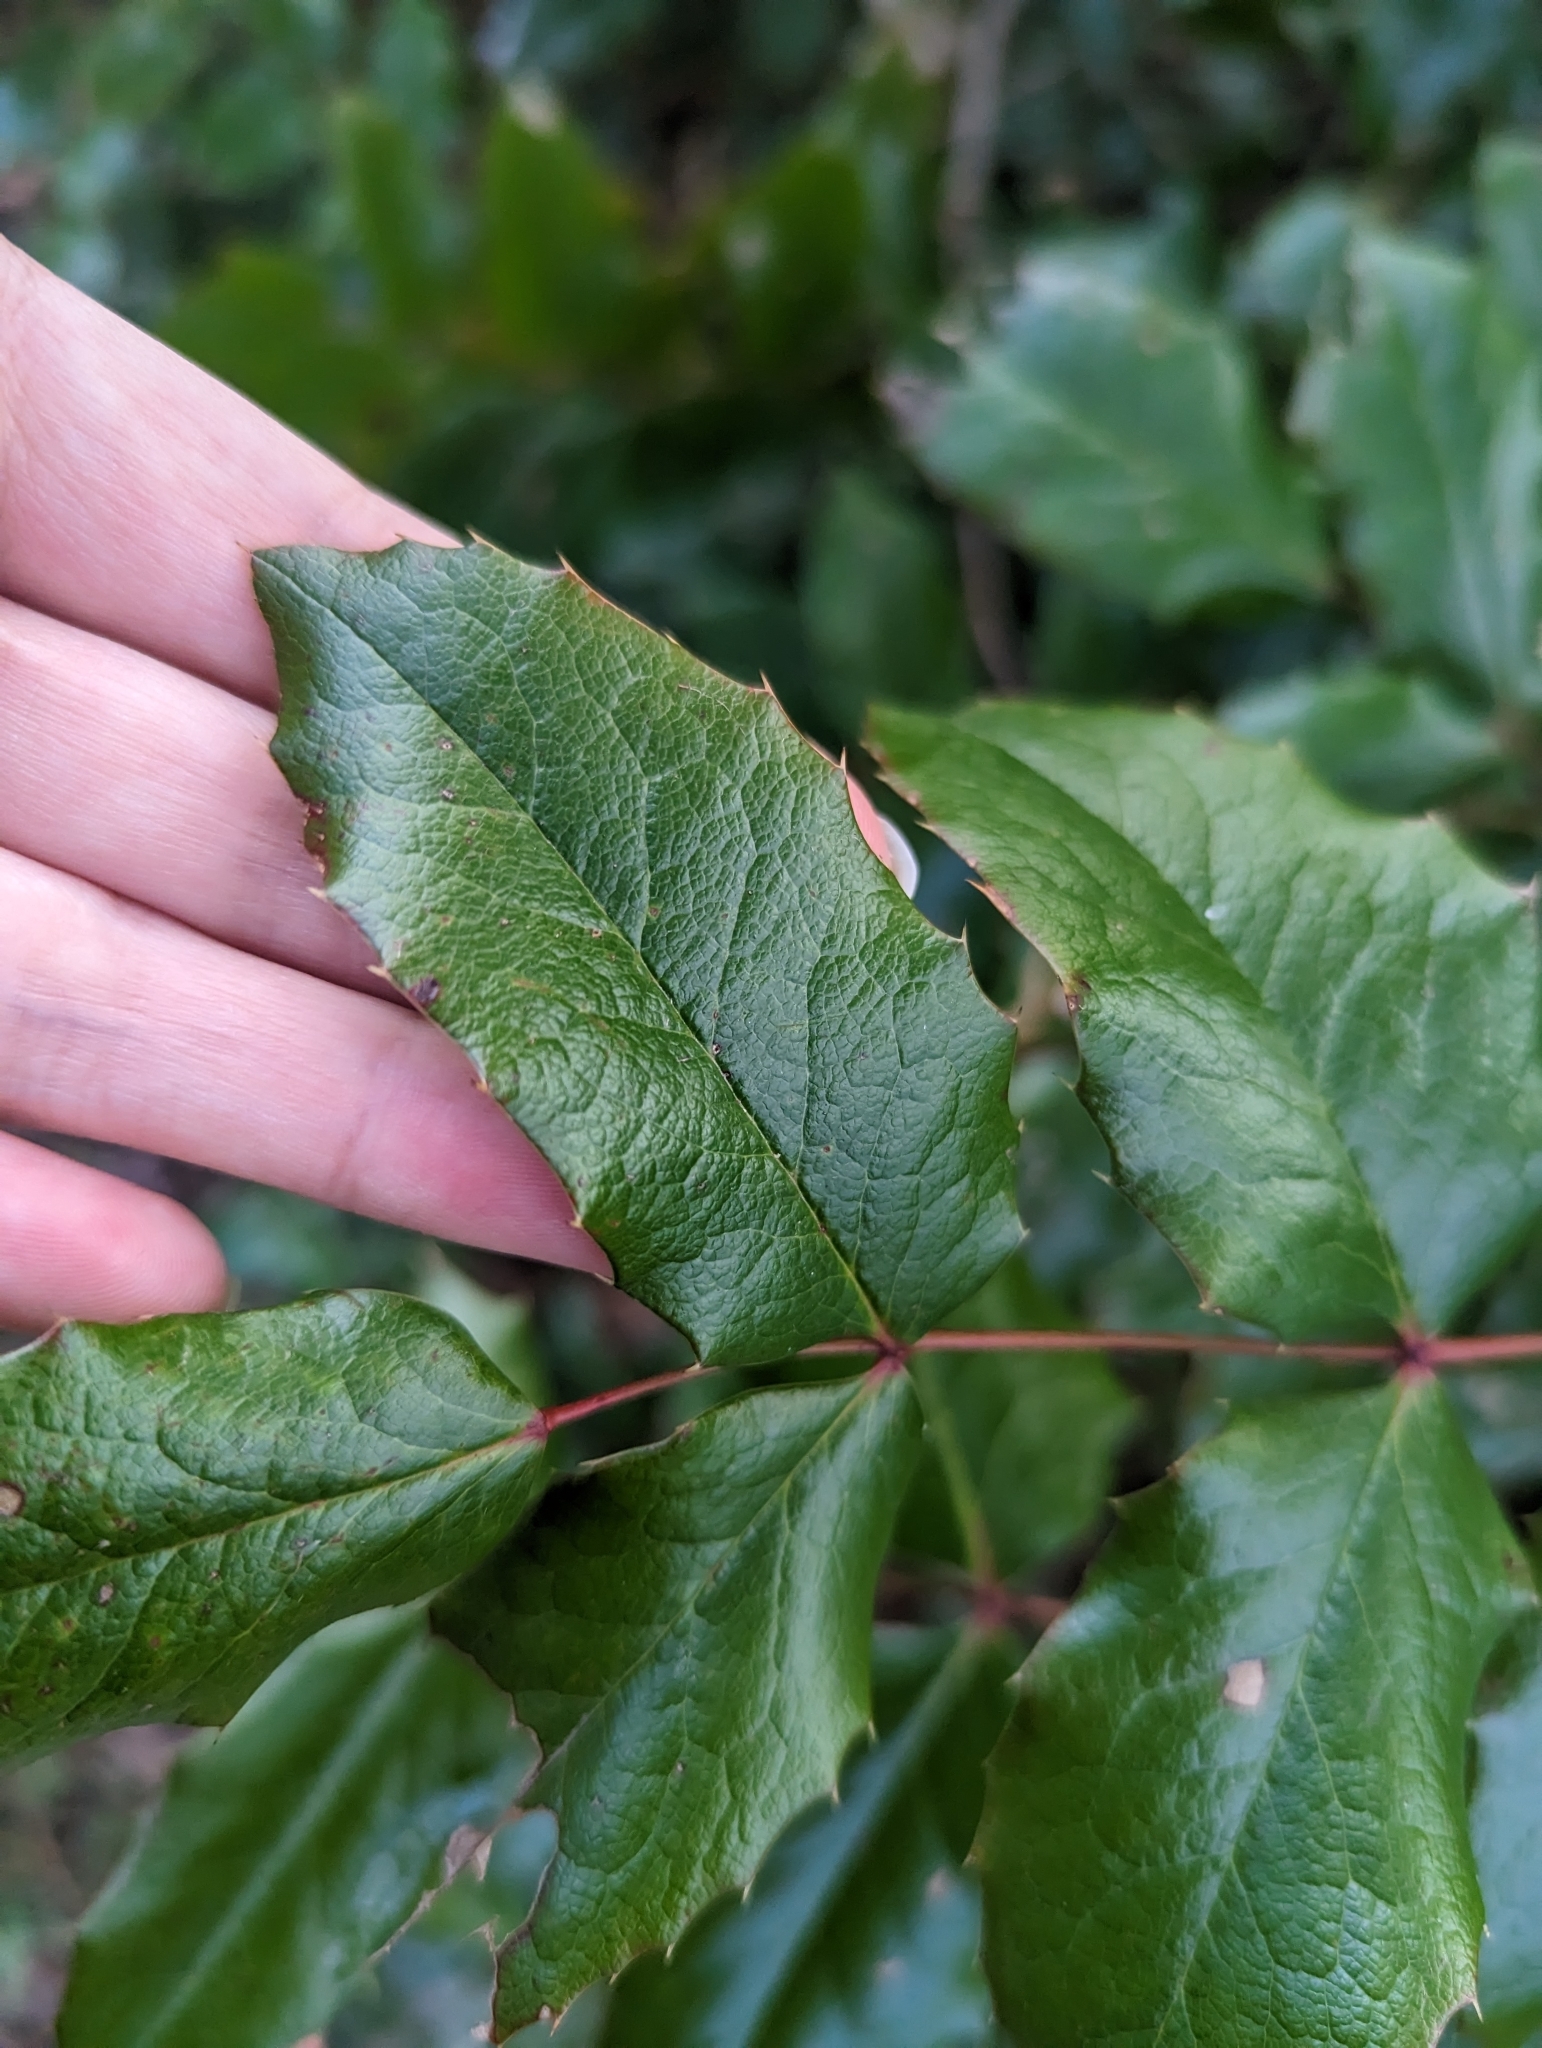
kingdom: Plantae
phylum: Tracheophyta
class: Magnoliopsida
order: Ranunculales
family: Berberidaceae
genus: Mahonia
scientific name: Mahonia aquifolium
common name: Oregon-grape
